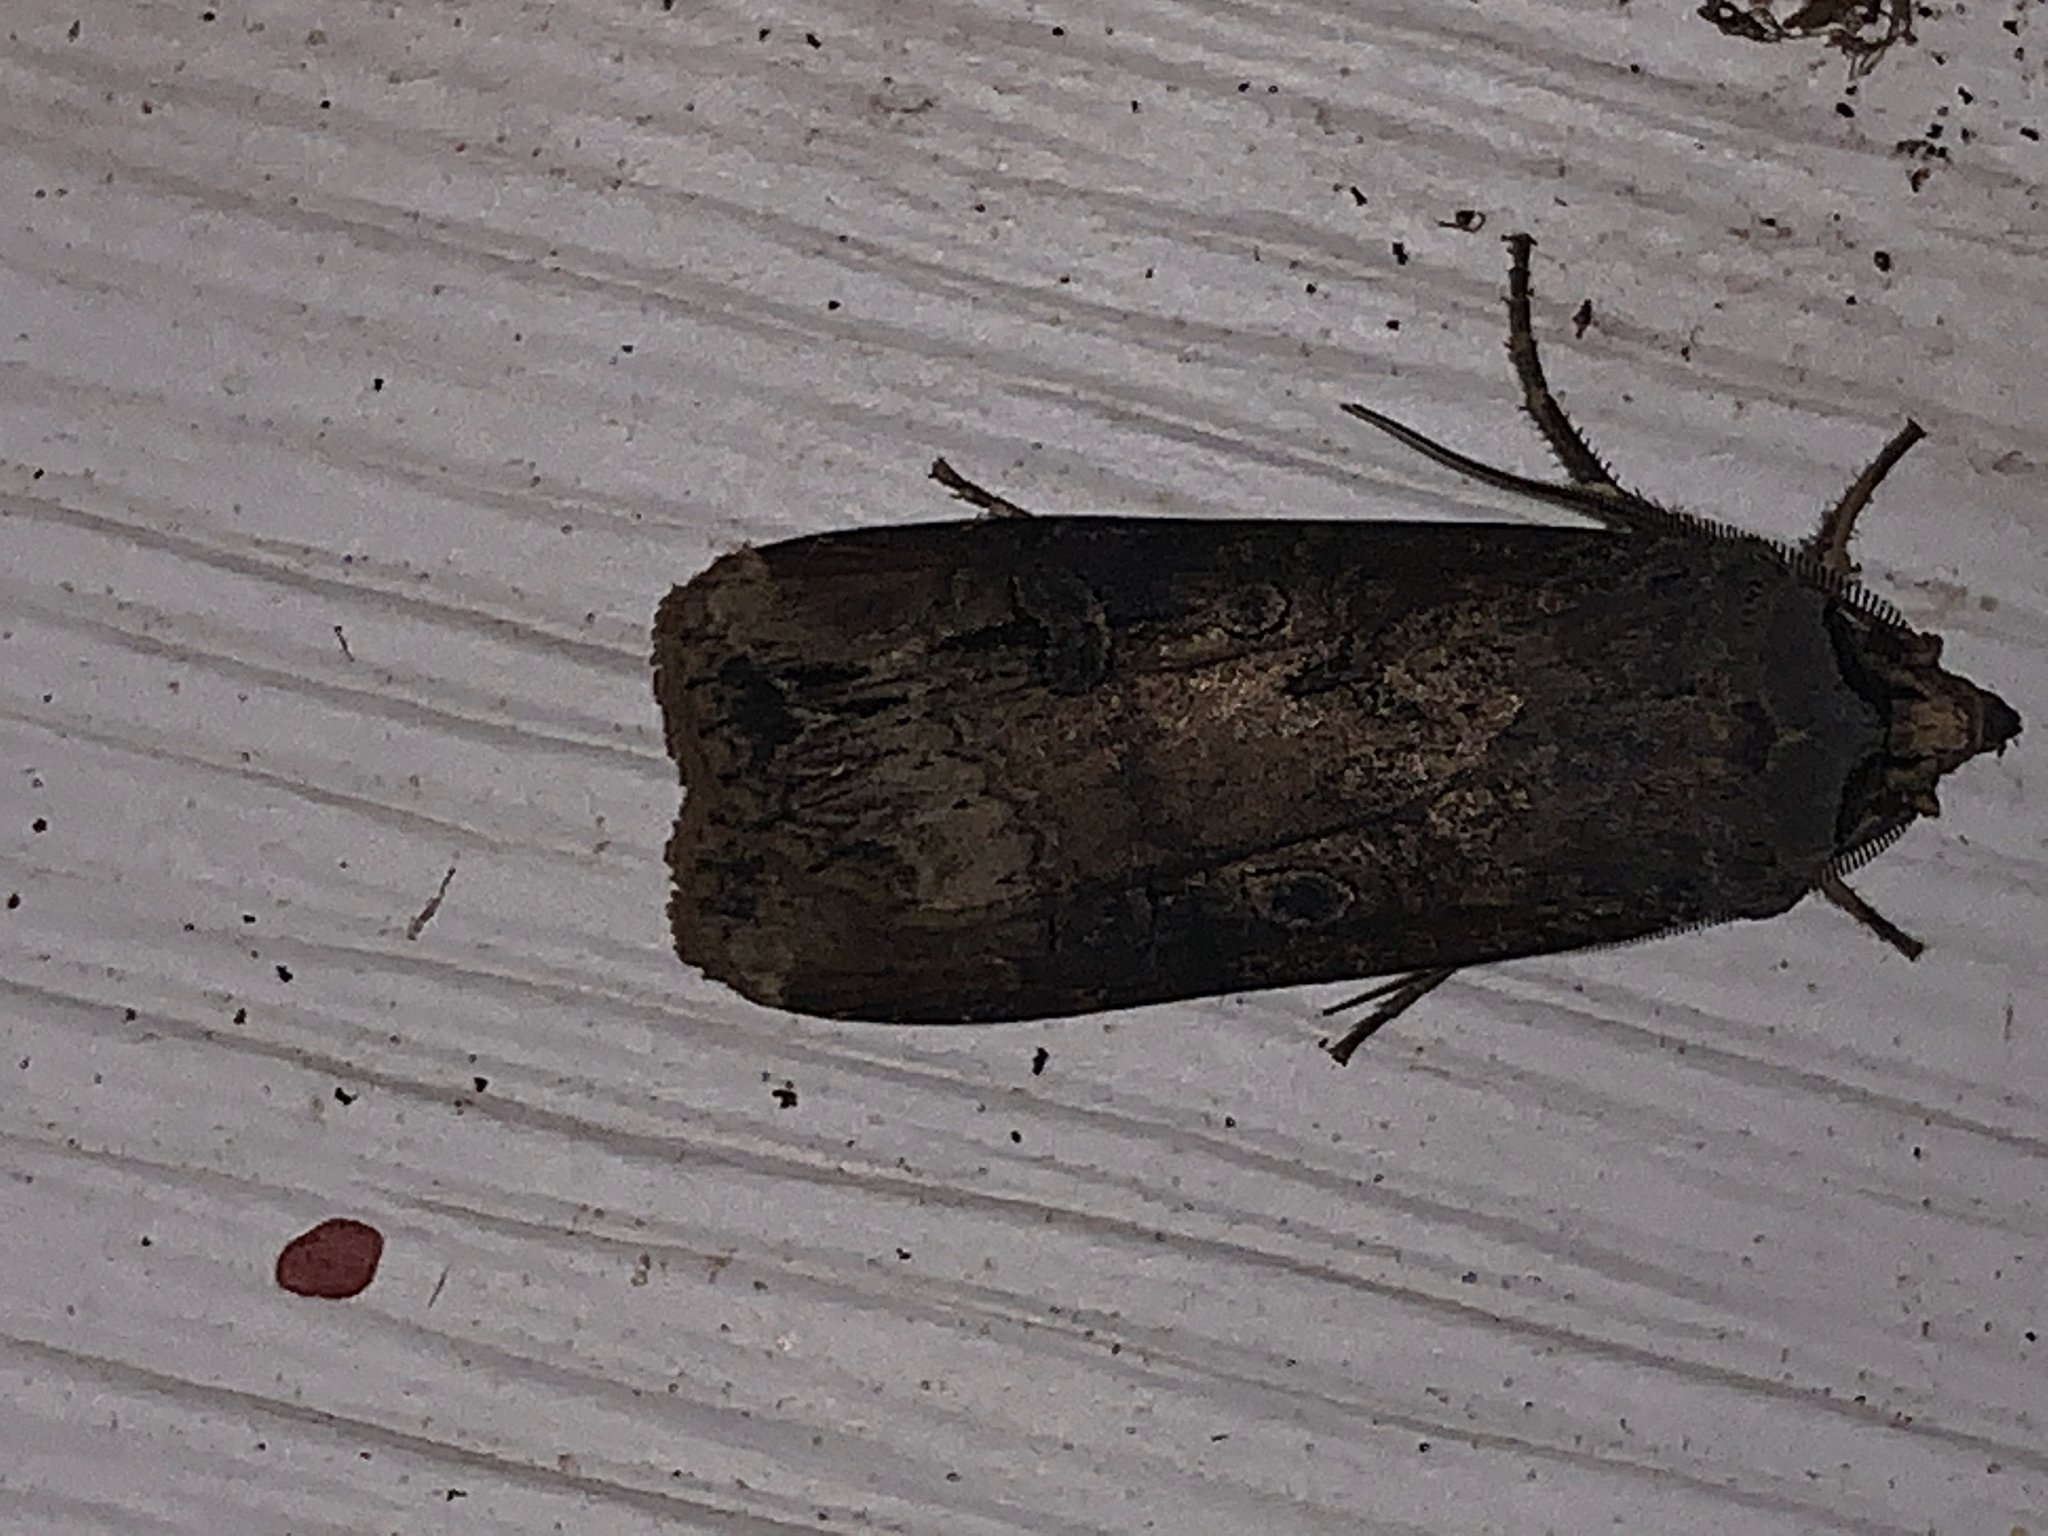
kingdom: Animalia
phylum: Arthropoda
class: Insecta
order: Lepidoptera
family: Noctuidae
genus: Agrotis
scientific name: Agrotis ipsilon
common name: Dark sword-grass
